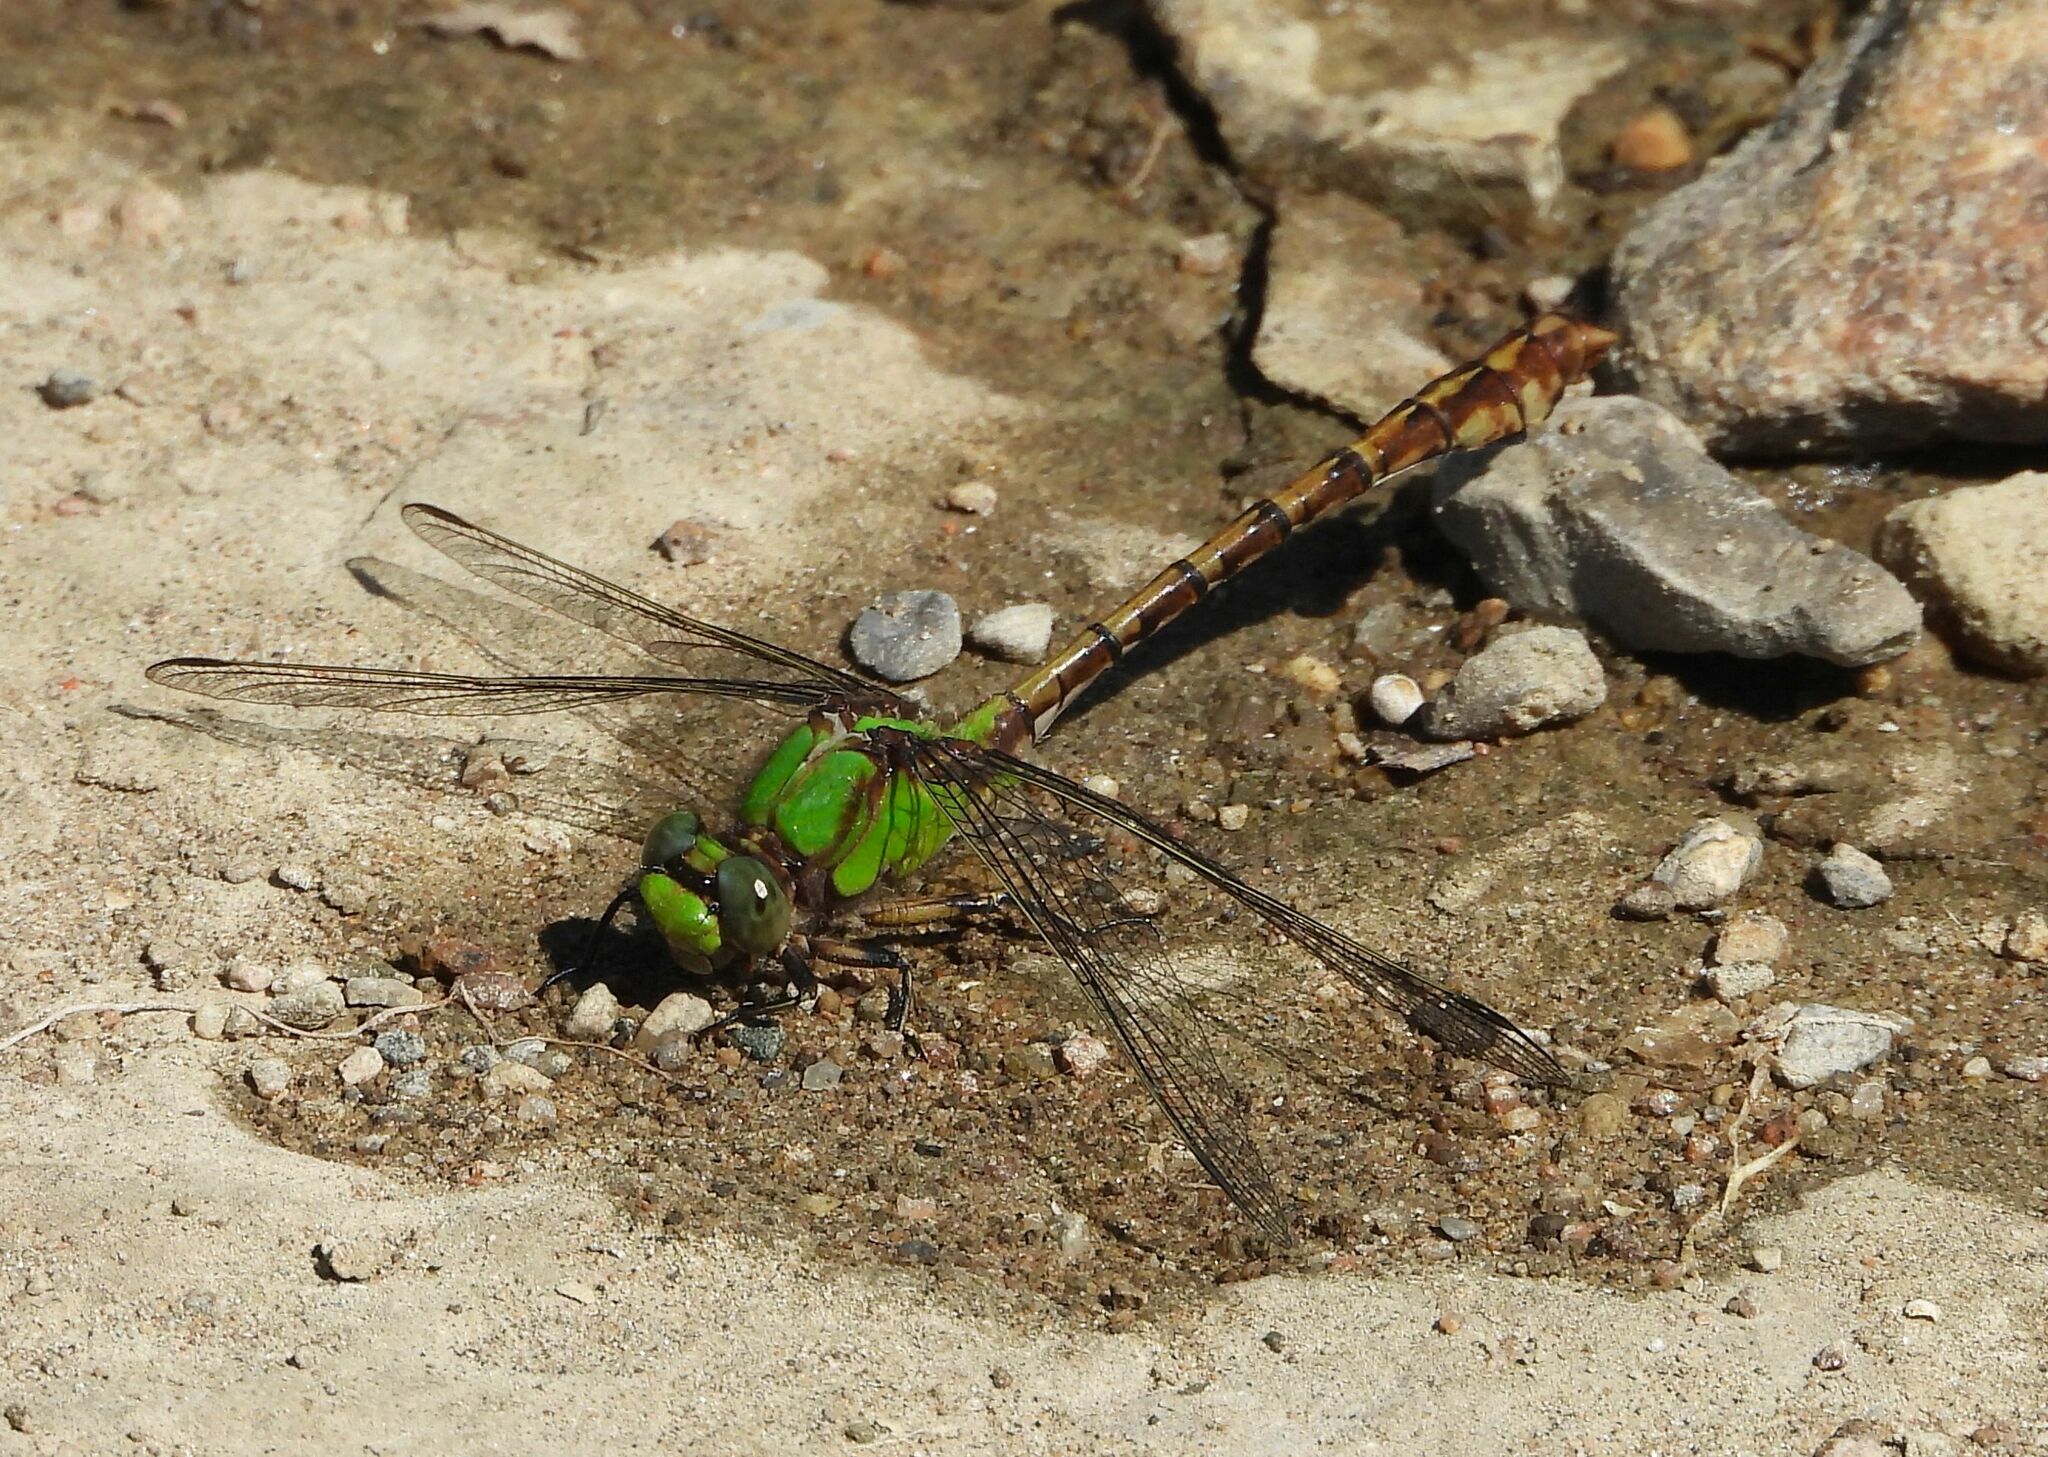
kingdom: Animalia
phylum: Arthropoda
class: Insecta
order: Odonata
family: Gomphidae
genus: Ophiogomphus
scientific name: Ophiogomphus rupinsulensis
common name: Rusty snaketail
